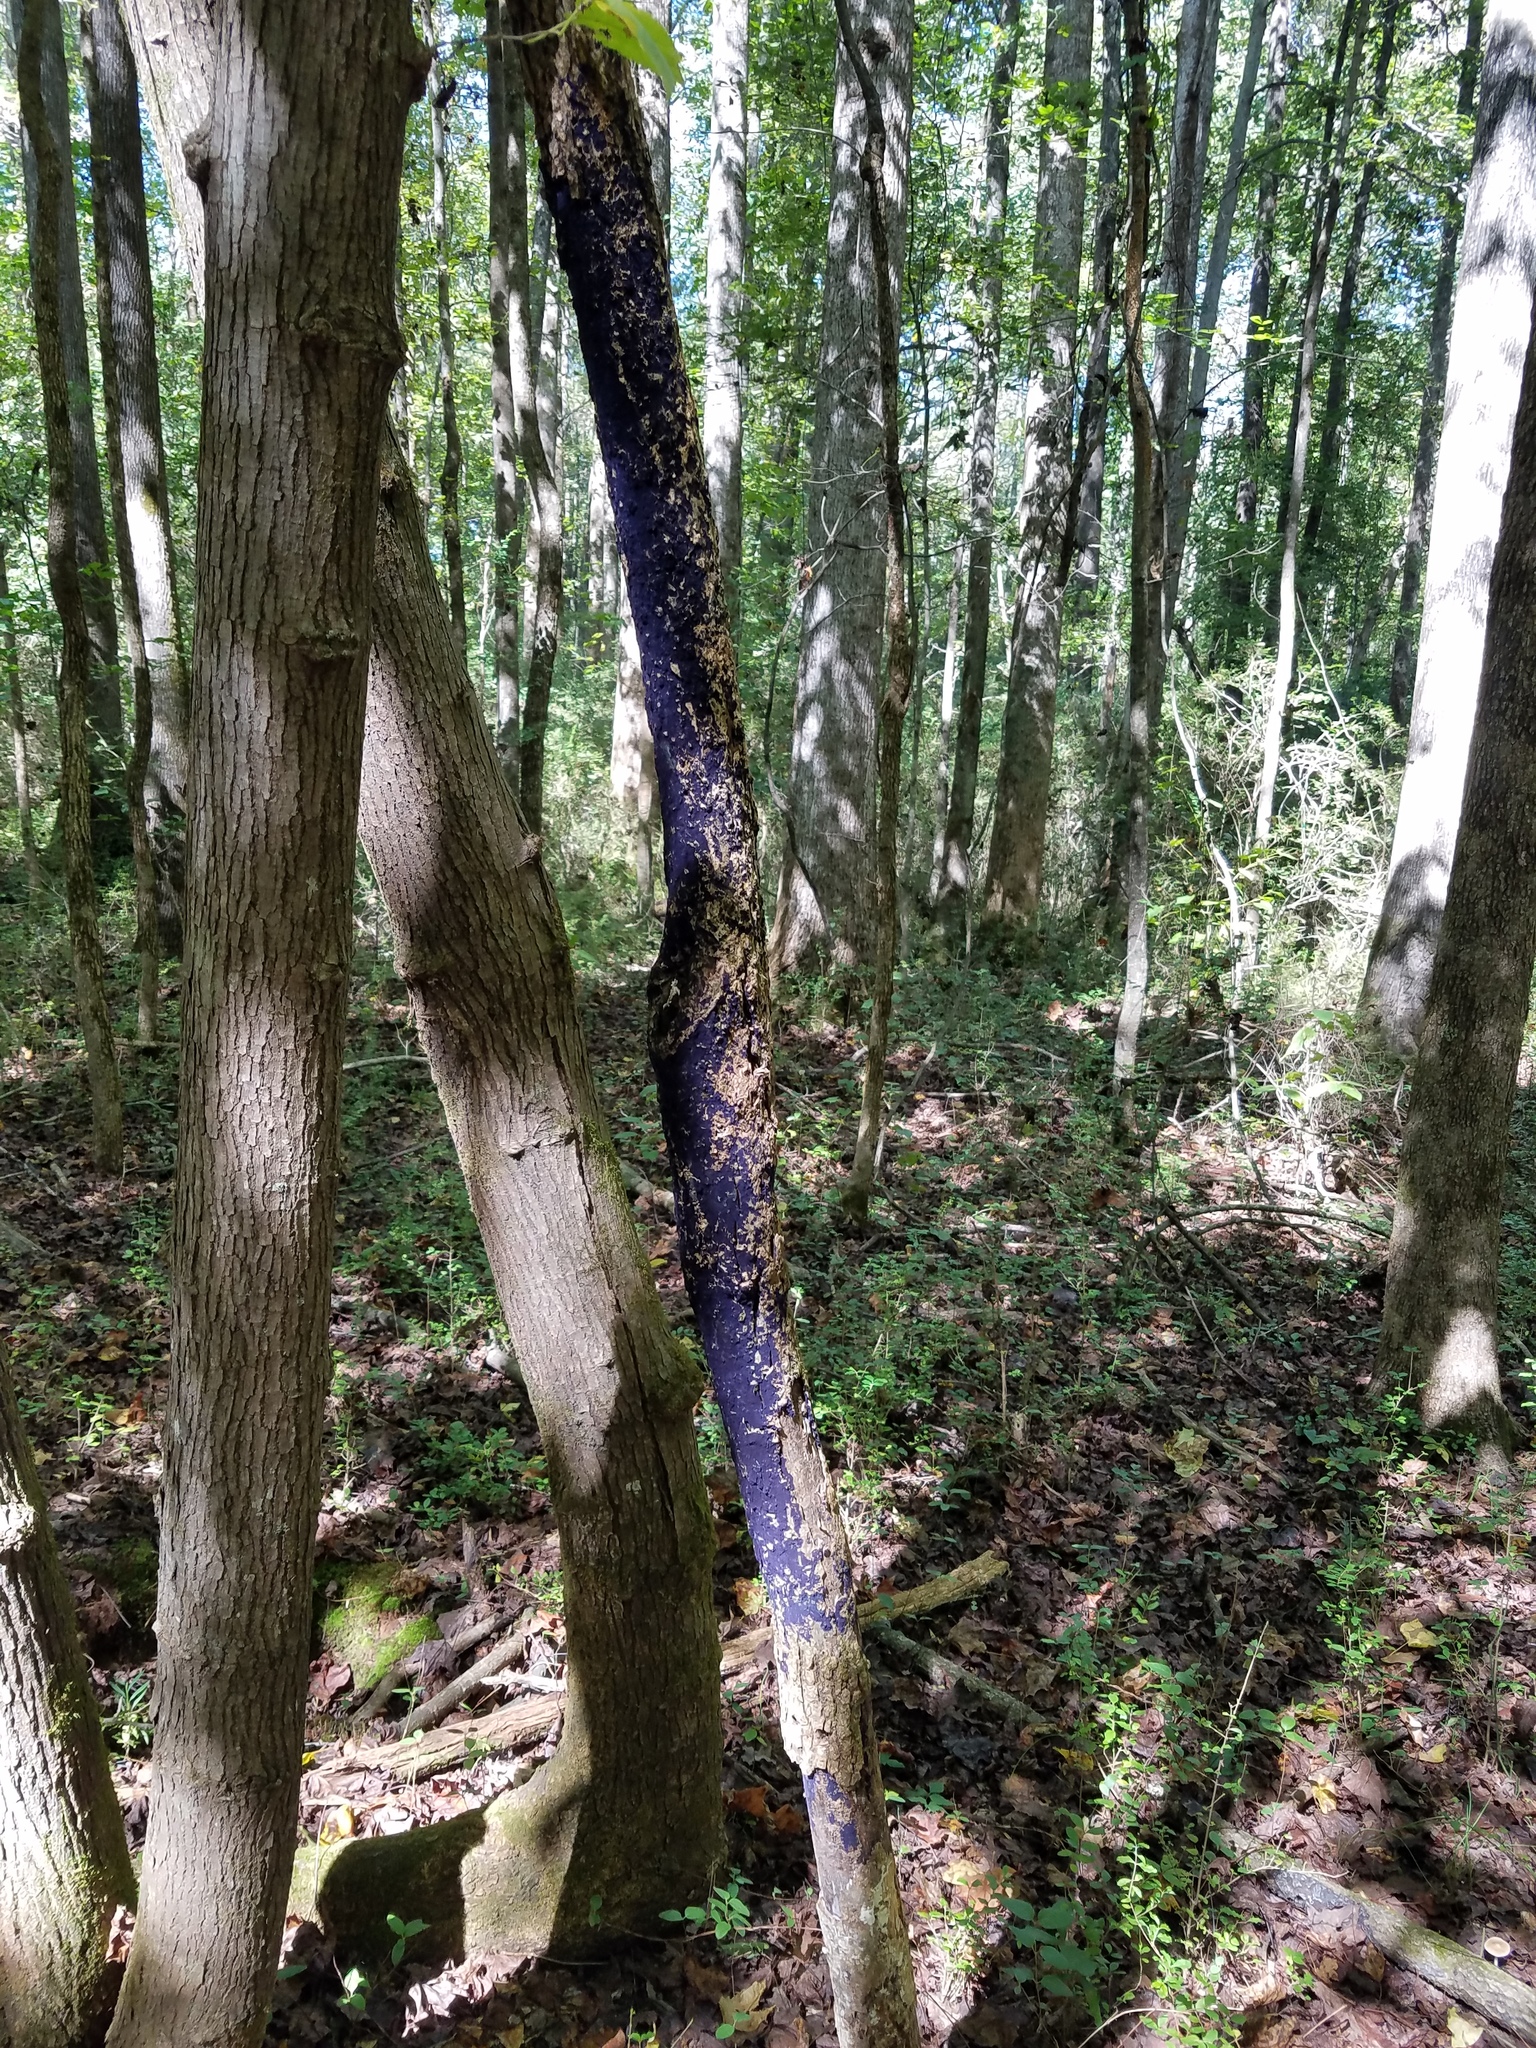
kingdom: Fungi
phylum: Basidiomycota
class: Agaricomycetes
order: Polyporales
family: Phanerochaetaceae
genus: Terana
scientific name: Terana coerulea
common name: Cobalt crust
